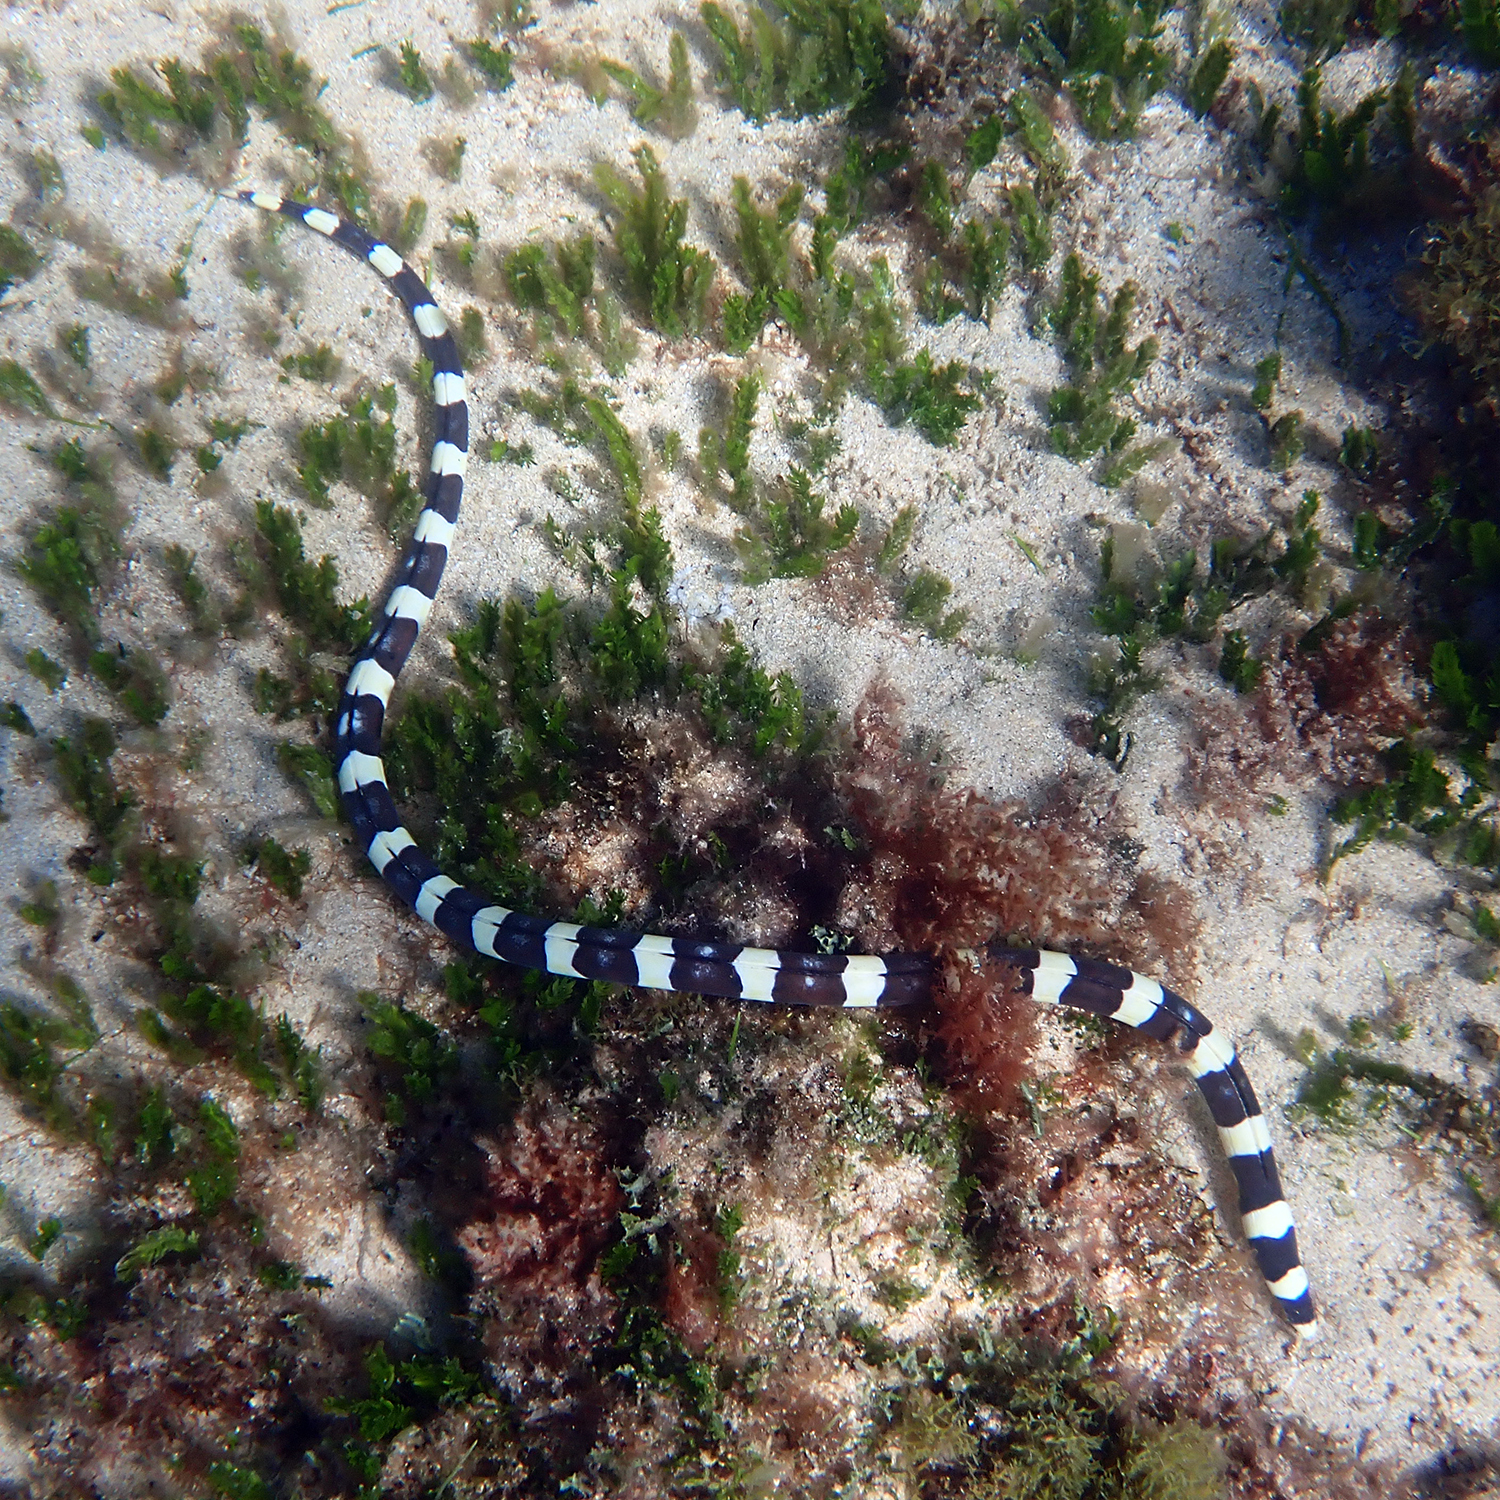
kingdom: Animalia
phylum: Chordata
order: Anguilliformes
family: Ophichthidae
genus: Leiuranus
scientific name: Leiuranus semicinctus
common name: Saddled snake eel
